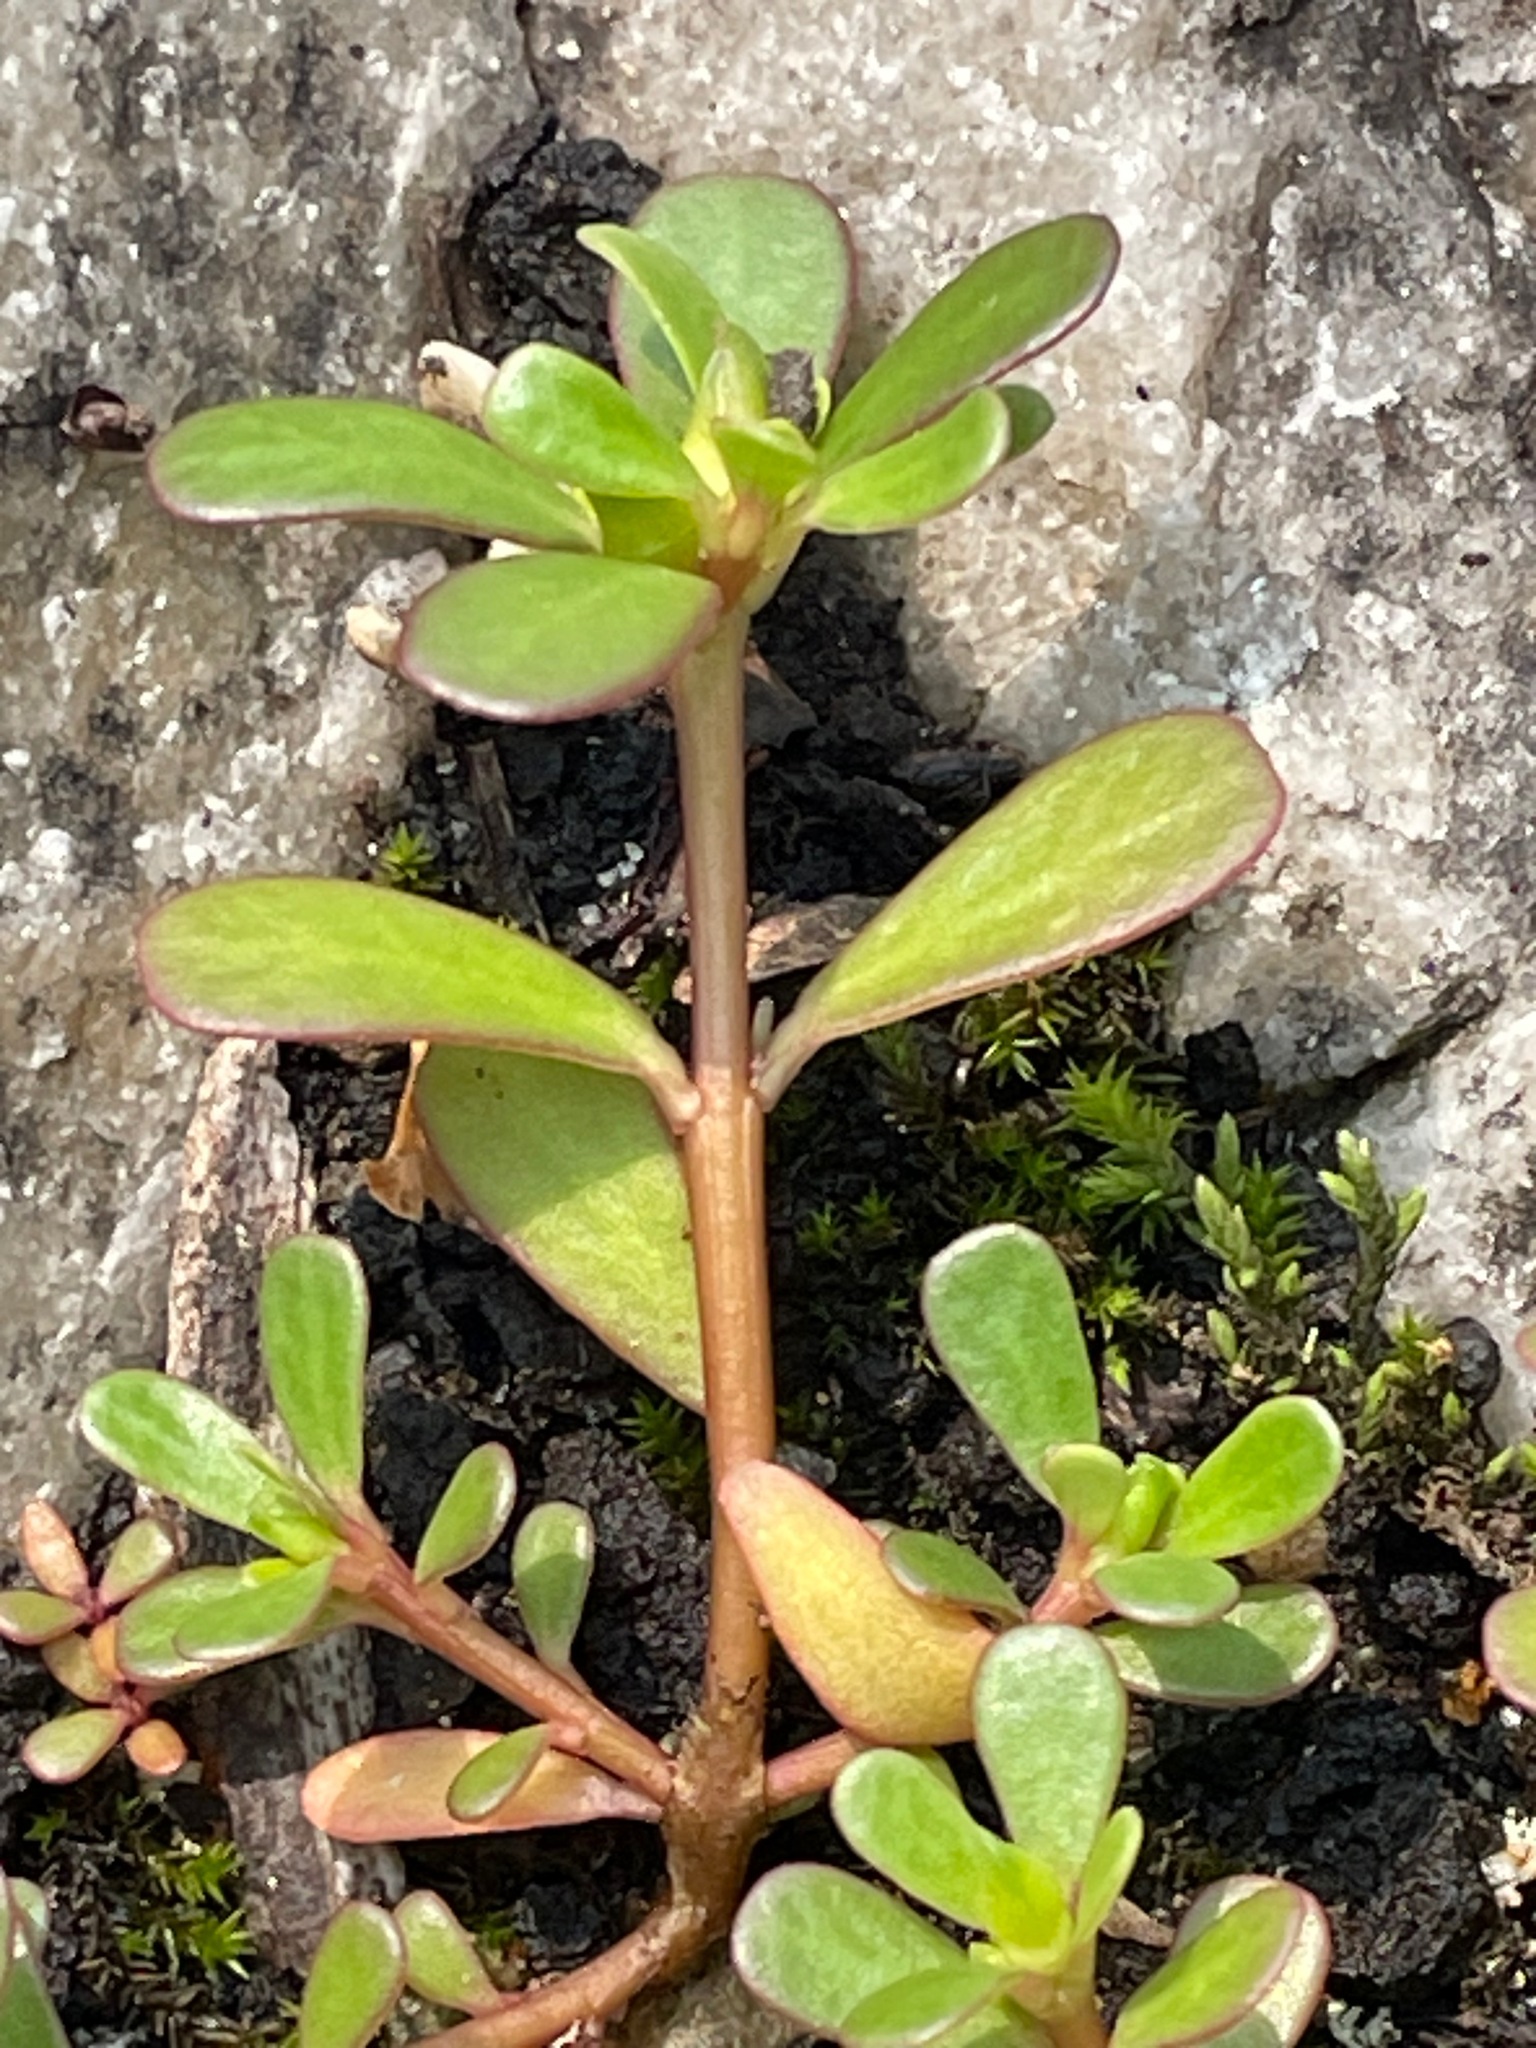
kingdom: Plantae
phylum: Tracheophyta
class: Magnoliopsida
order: Caryophyllales
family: Portulacaceae
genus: Portulaca
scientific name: Portulaca oleracea
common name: Common purslane
